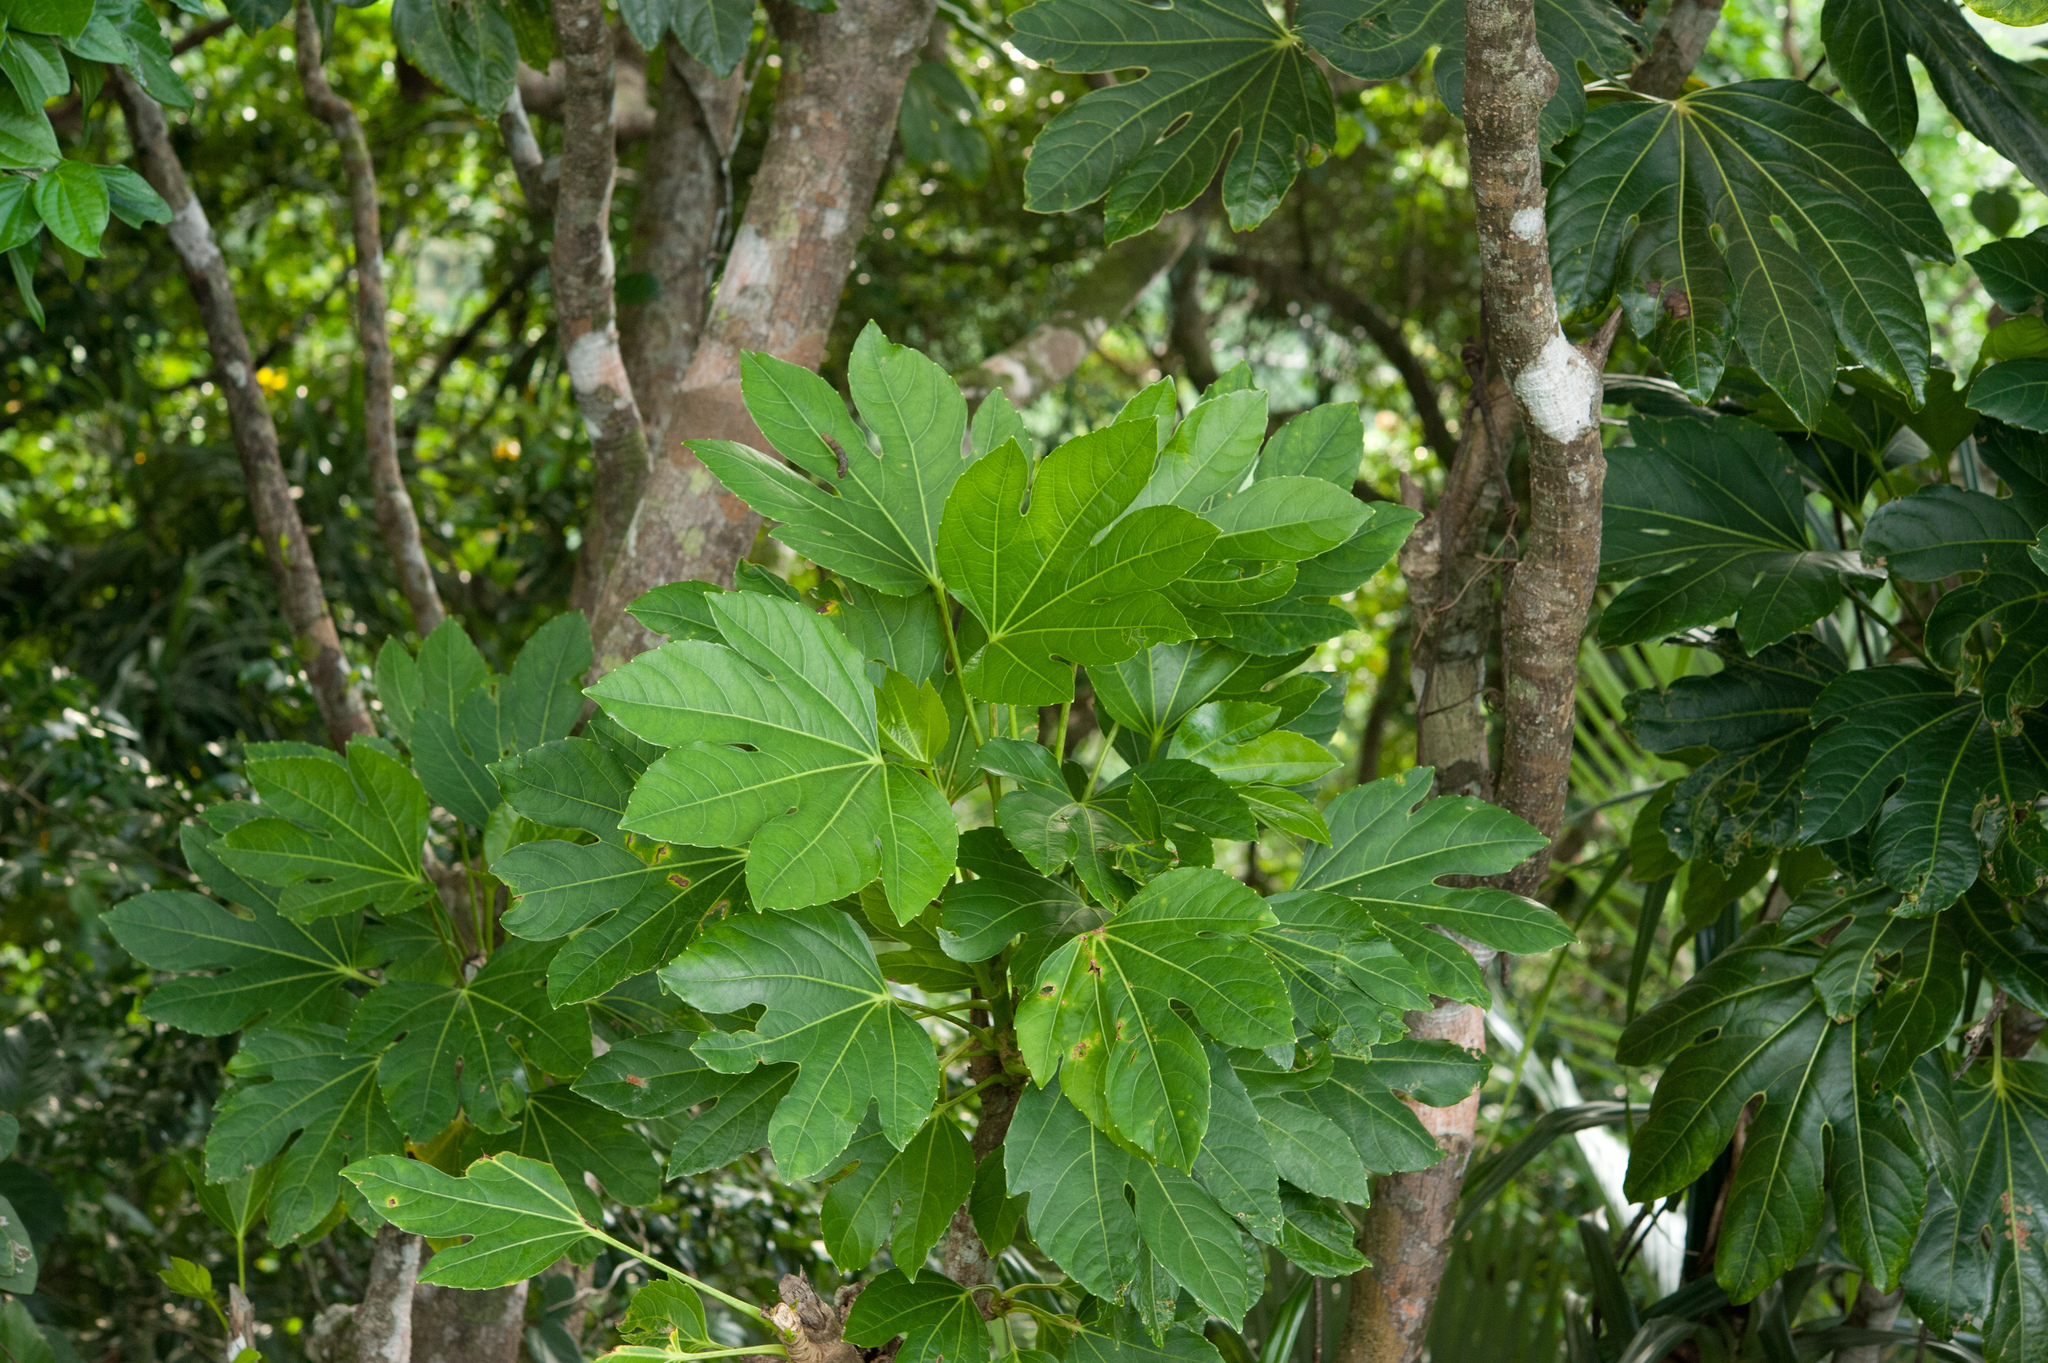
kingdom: Plantae
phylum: Tracheophyta
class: Magnoliopsida
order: Apiales
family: Araliaceae
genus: Osmoxylon
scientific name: Osmoxylon pectinatum
